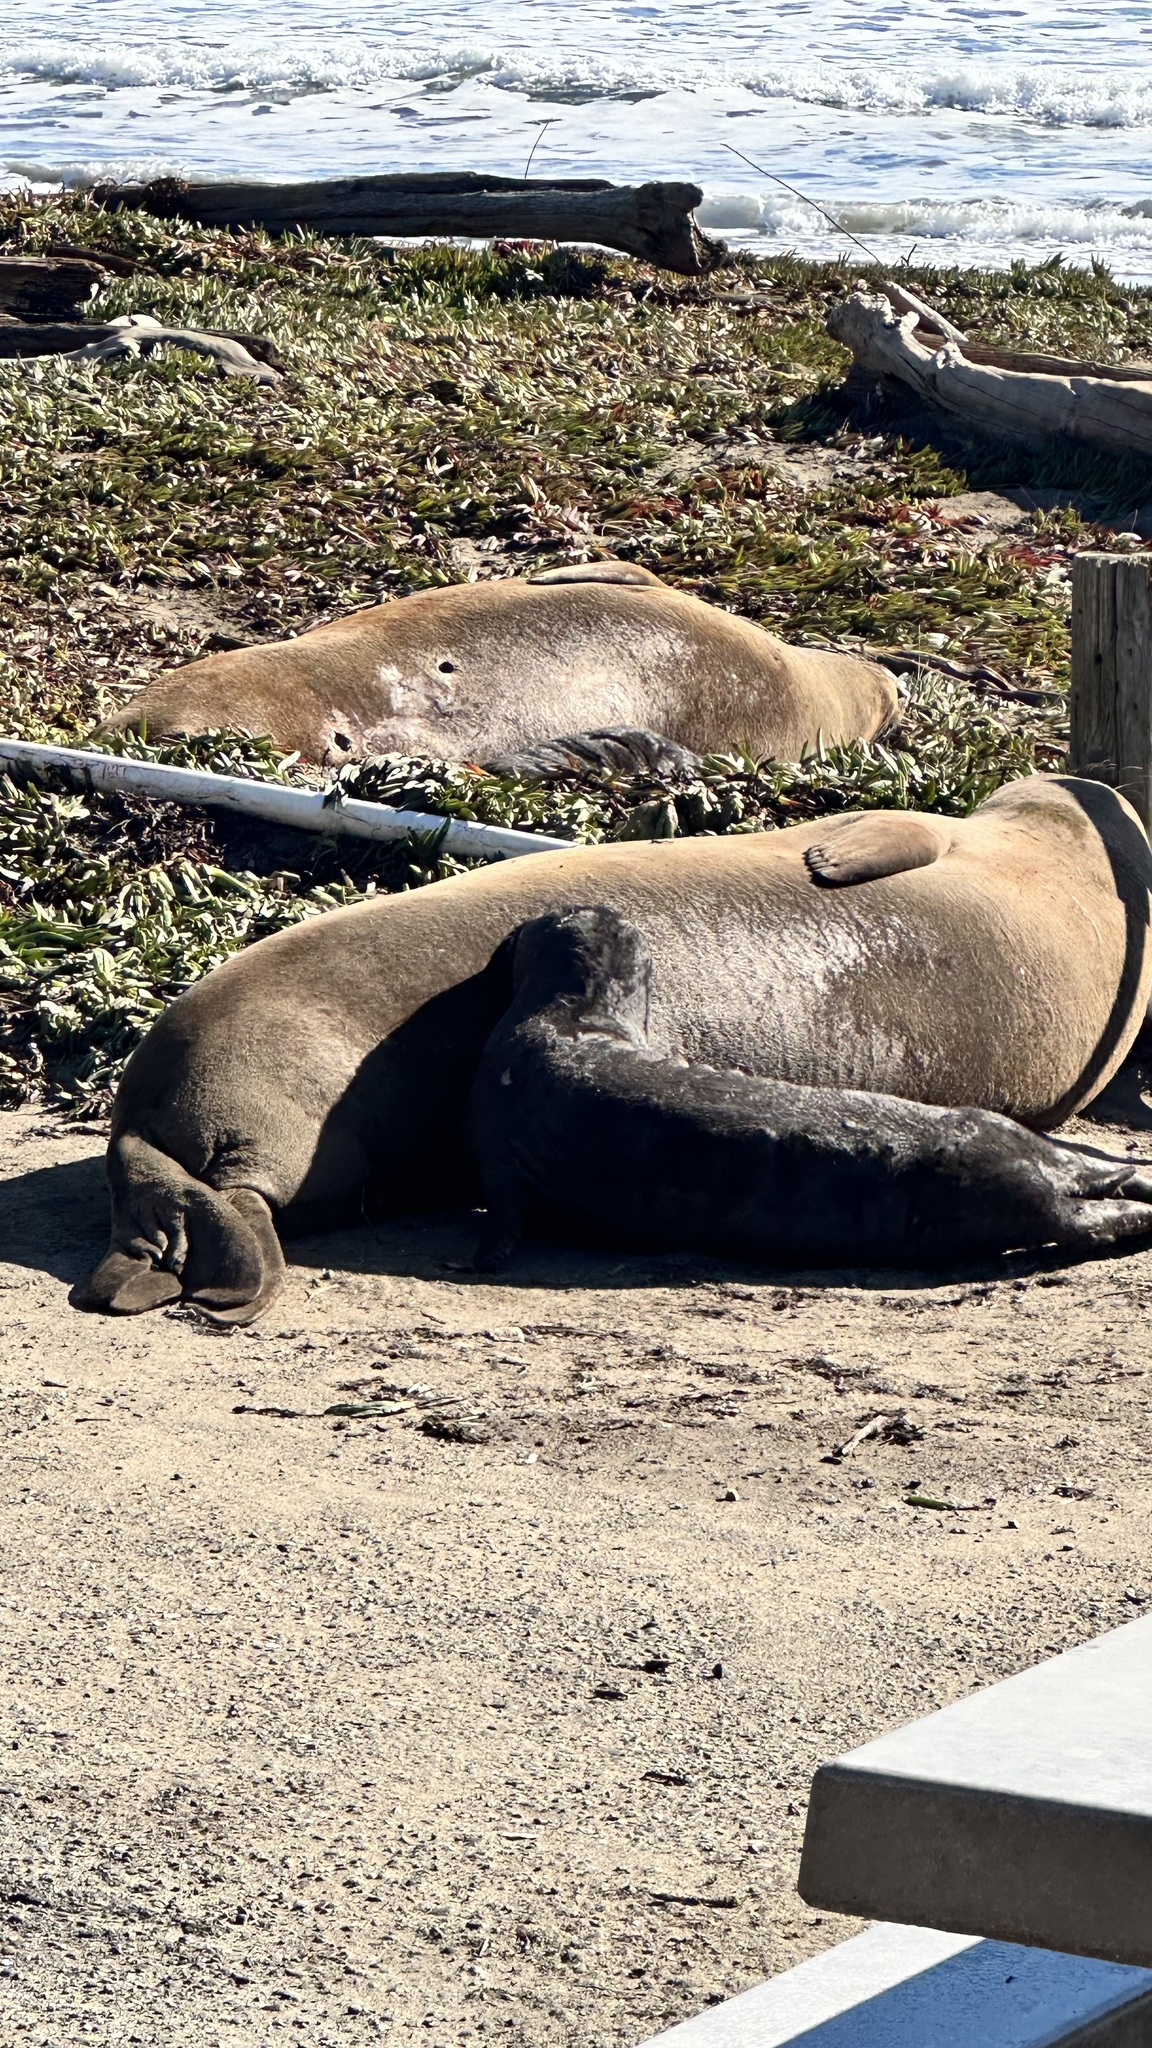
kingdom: Animalia
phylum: Chordata
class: Mammalia
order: Carnivora
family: Phocidae
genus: Mirounga
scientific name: Mirounga angustirostris
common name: Northern elephant seal
